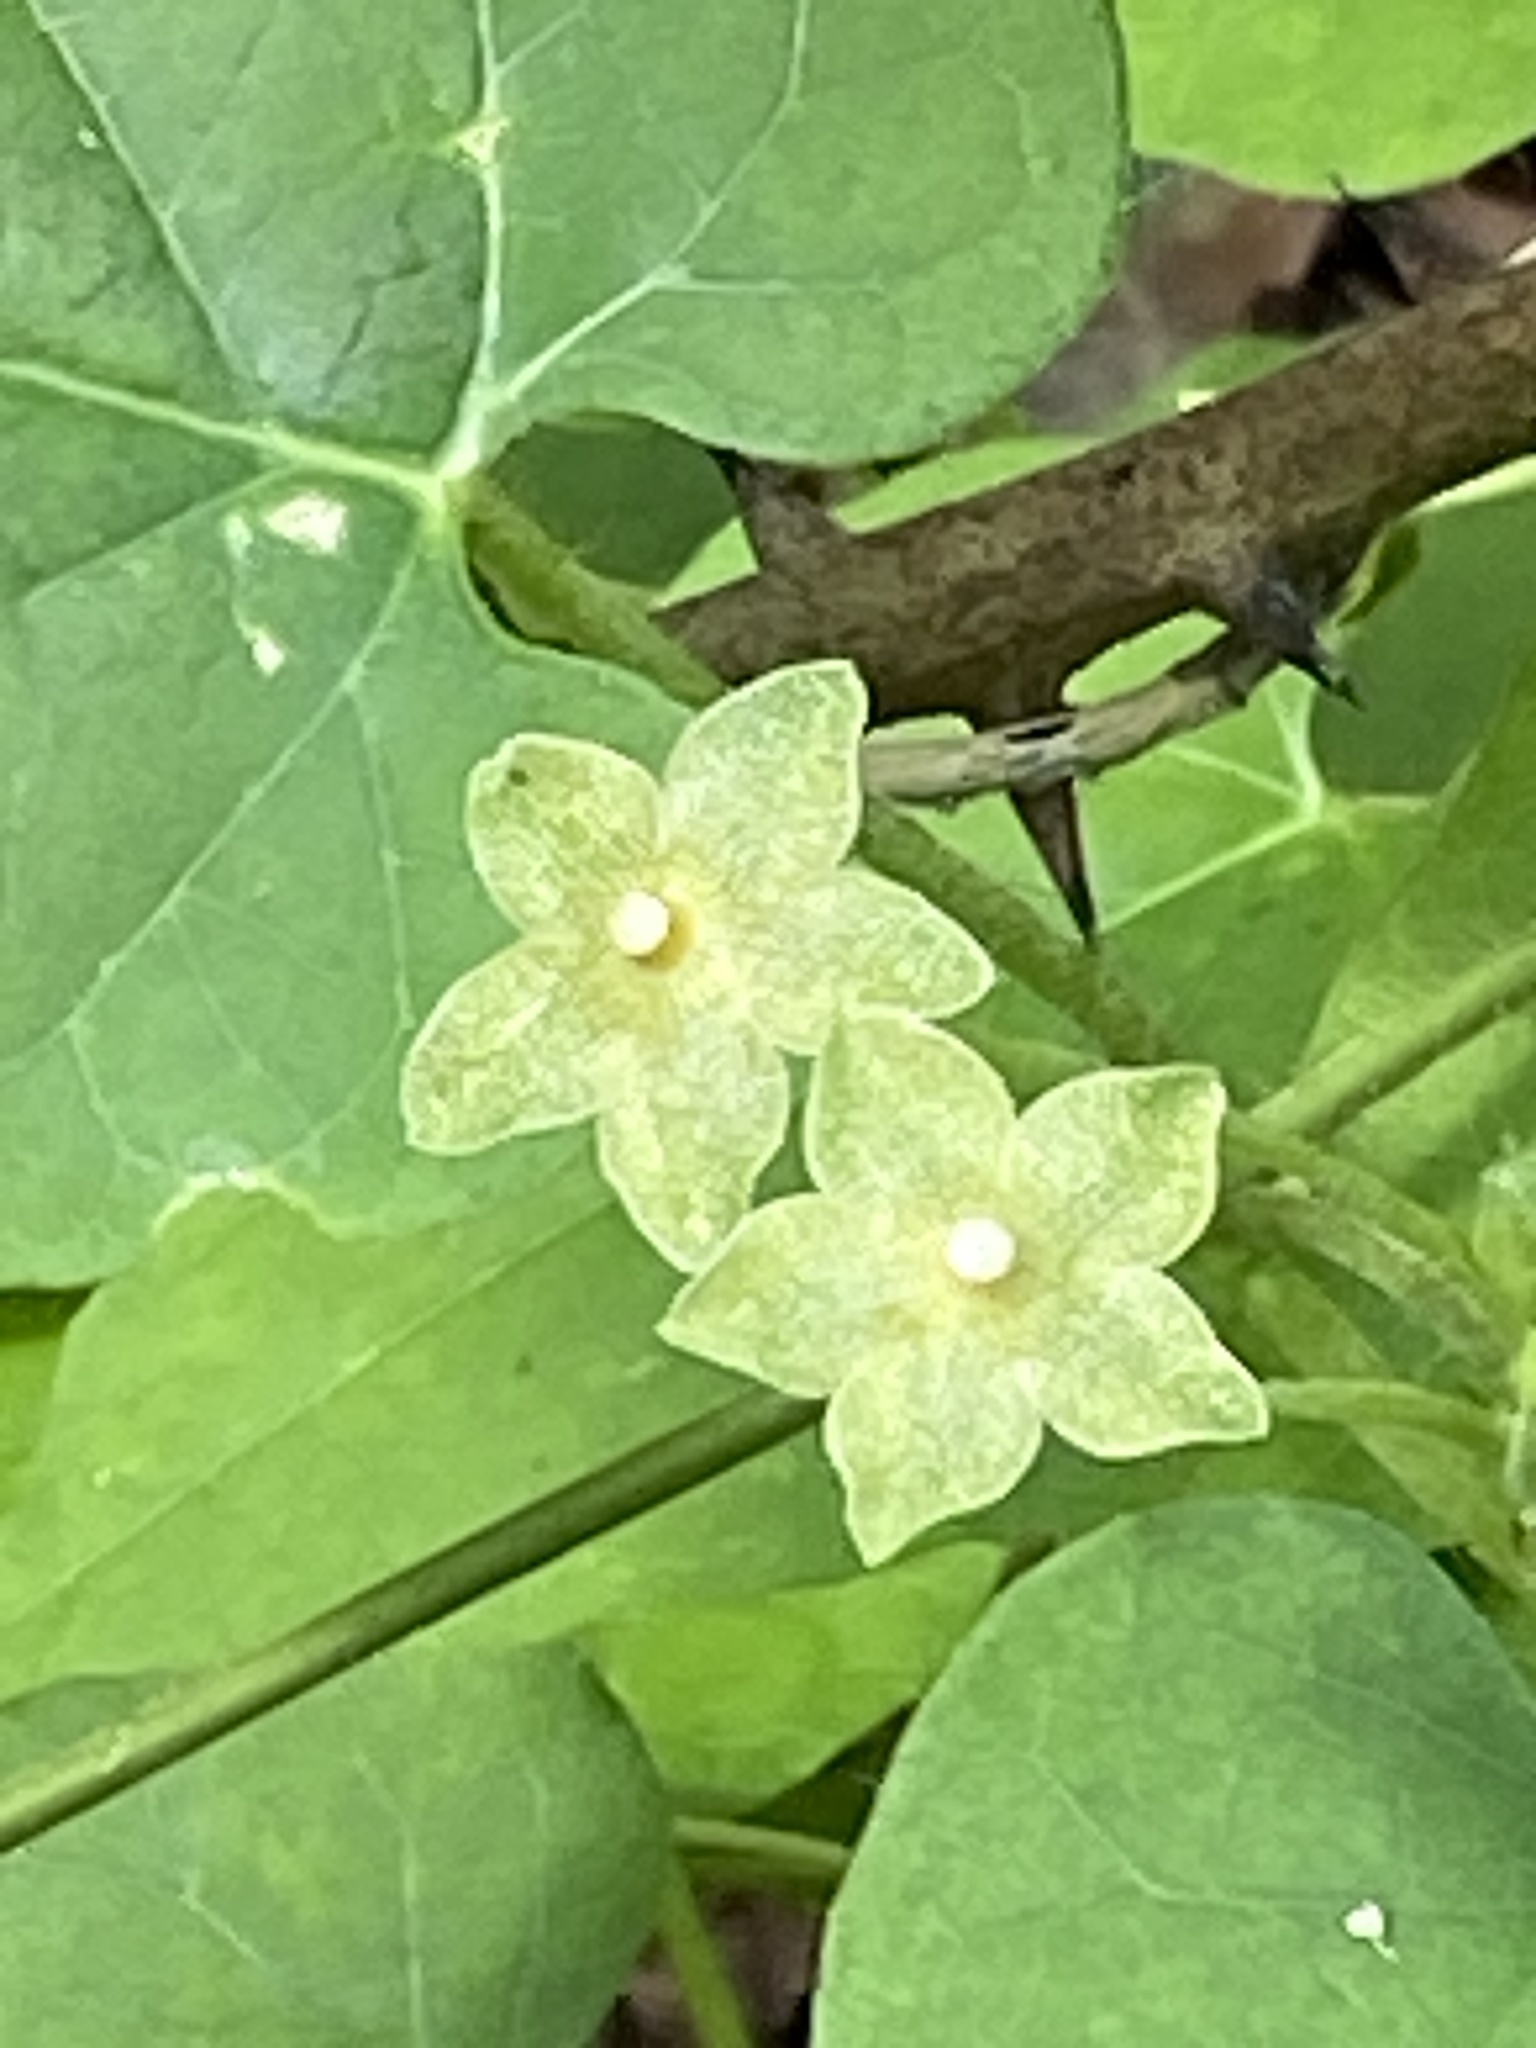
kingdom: Plantae
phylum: Tracheophyta
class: Magnoliopsida
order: Gentianales
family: Apocynaceae
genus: Dictyanthus
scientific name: Dictyanthus reticulatus
